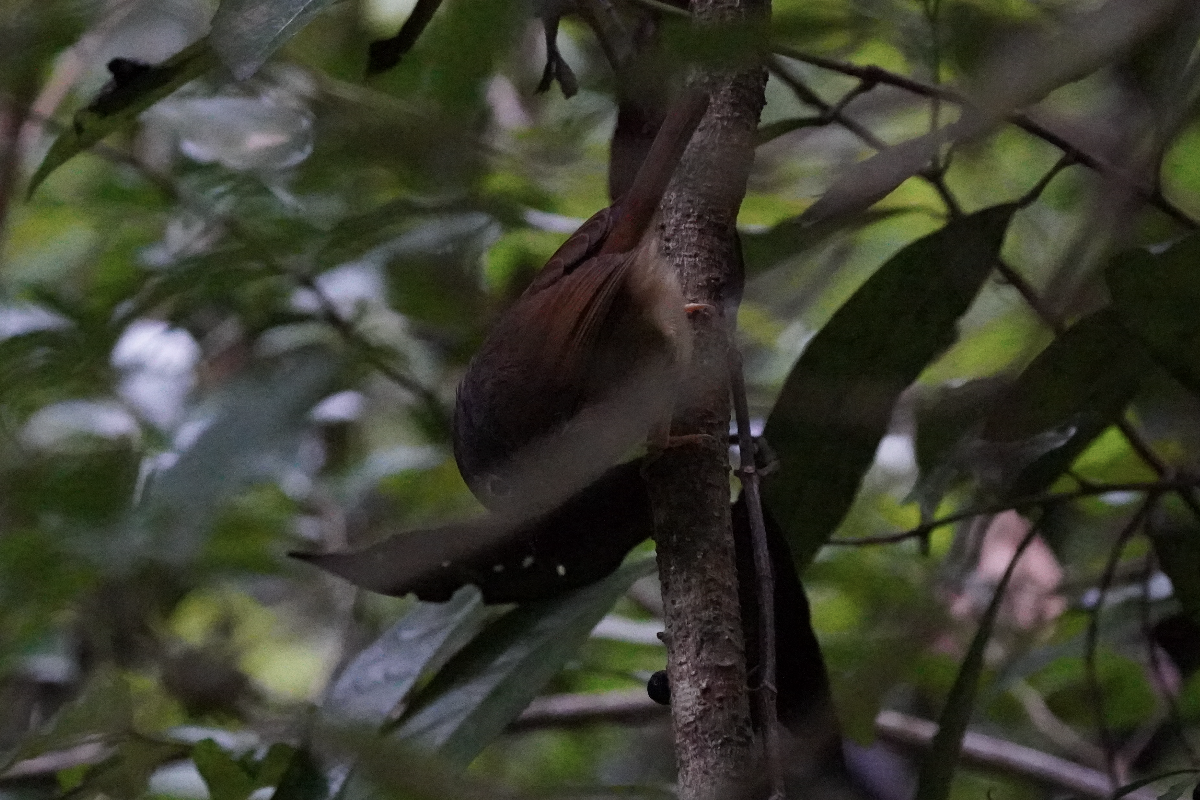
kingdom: Animalia
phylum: Chordata
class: Aves
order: Passeriformes
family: Pellorneidae
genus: Alcippe
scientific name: Alcippe hueti
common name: Huet's fulvetta
